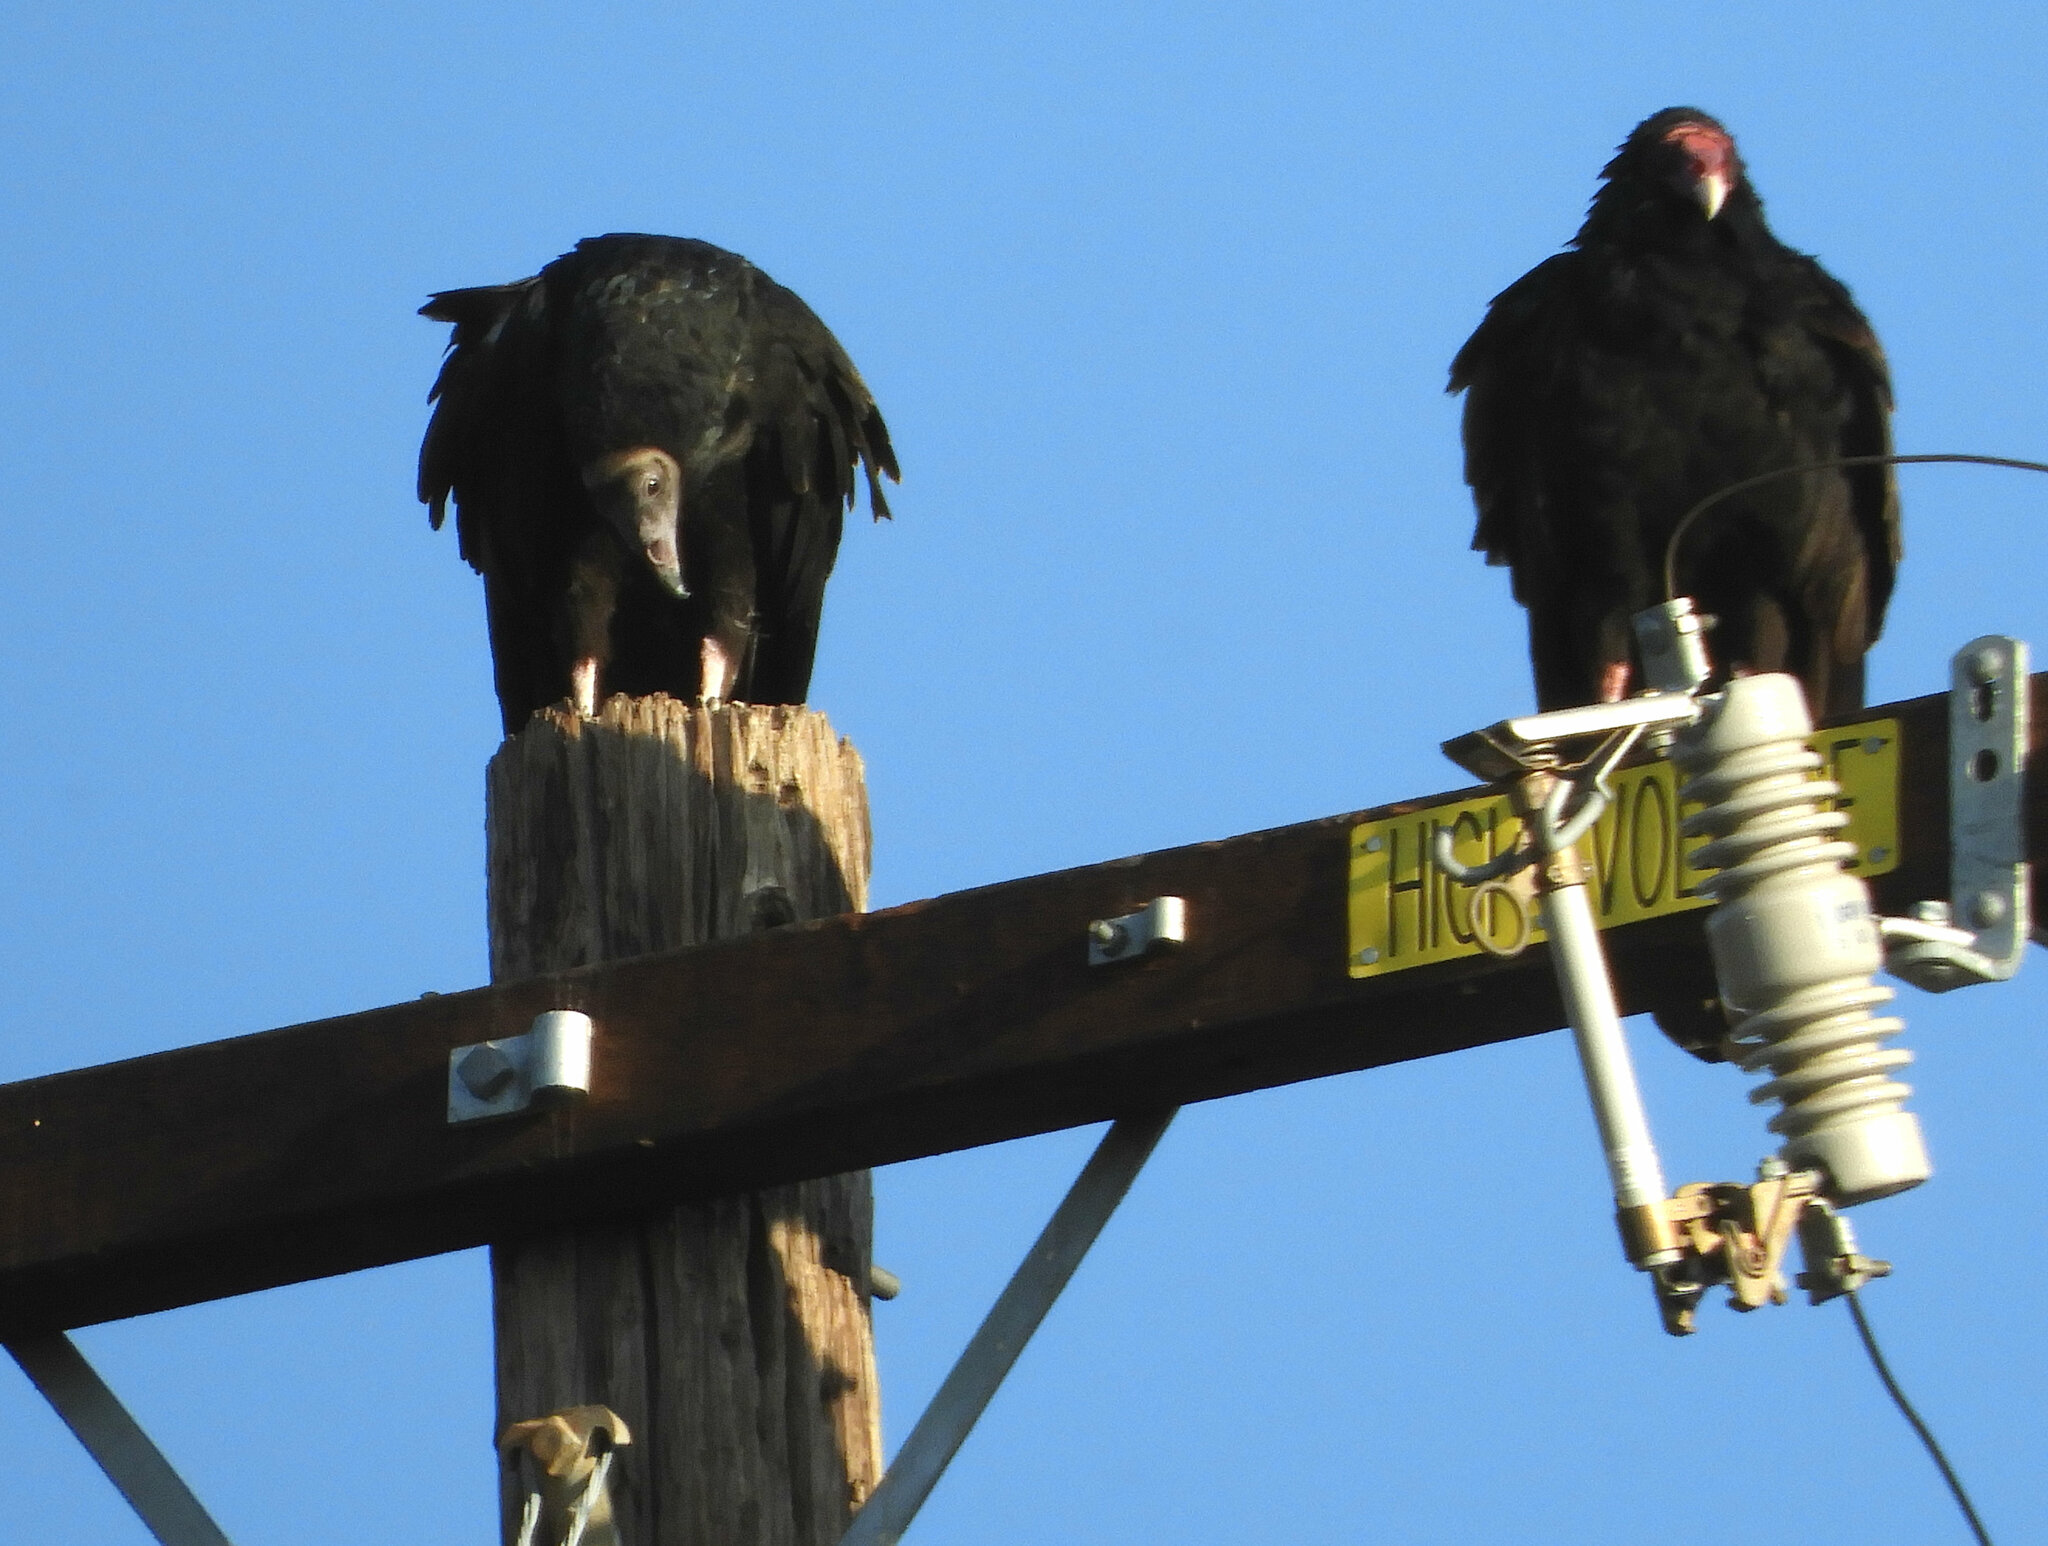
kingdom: Animalia
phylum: Chordata
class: Aves
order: Accipitriformes
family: Cathartidae
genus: Cathartes
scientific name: Cathartes aura
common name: Turkey vulture
